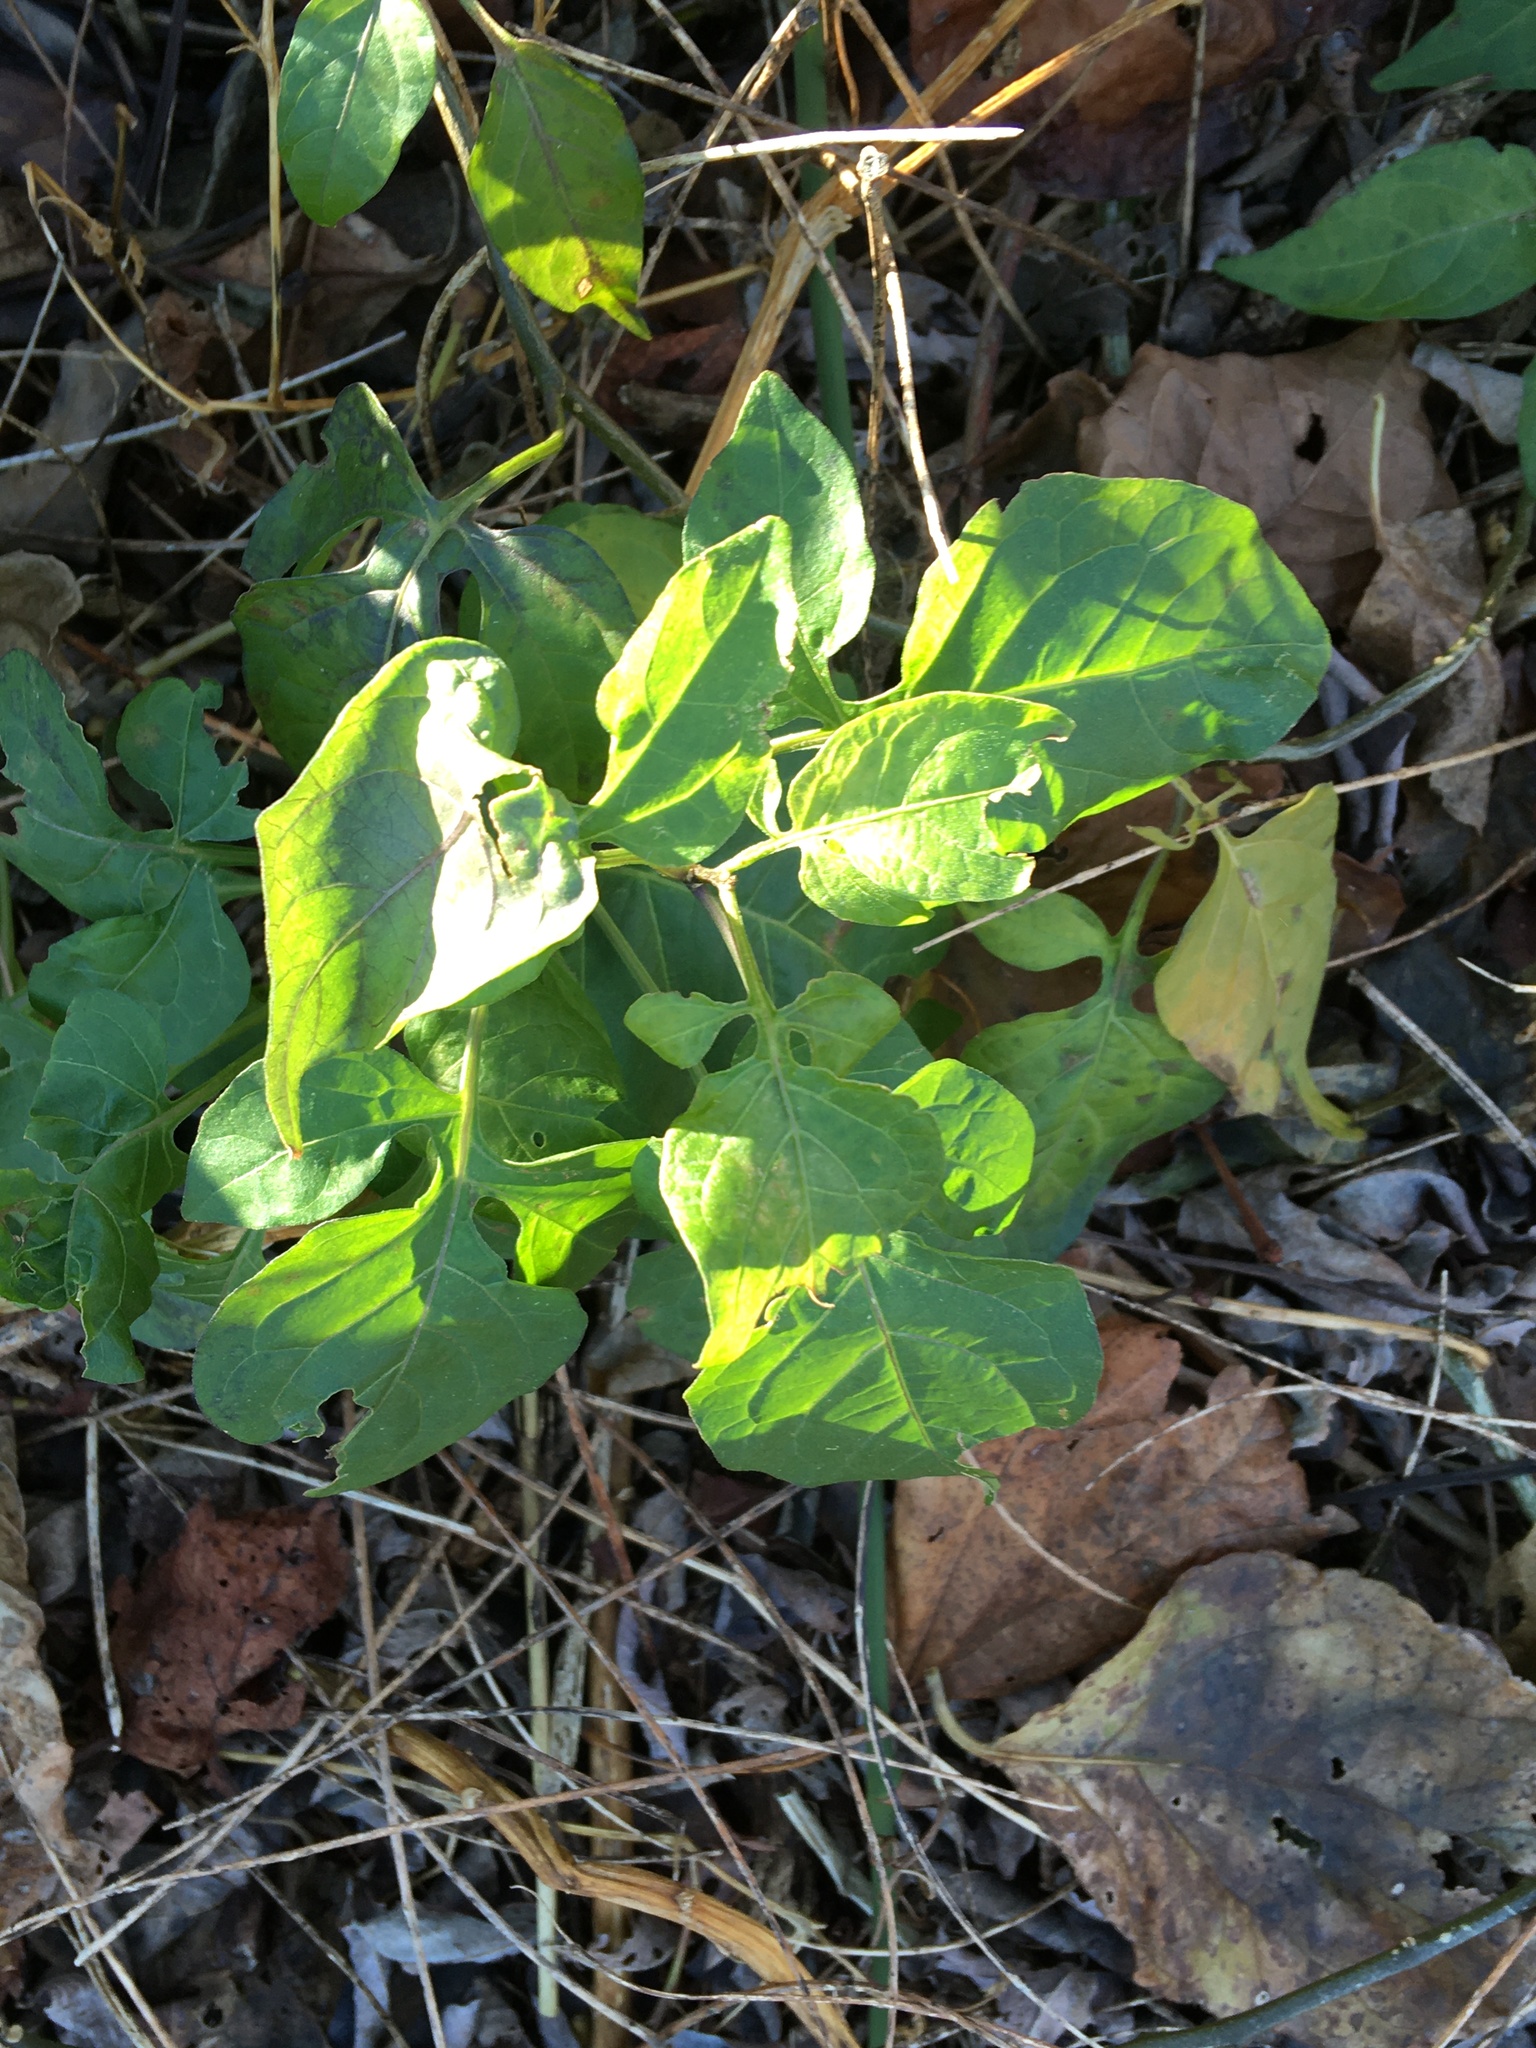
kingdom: Plantae
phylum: Tracheophyta
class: Magnoliopsida
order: Solanales
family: Solanaceae
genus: Solanum
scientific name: Solanum dulcamara
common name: Climbing nightshade
